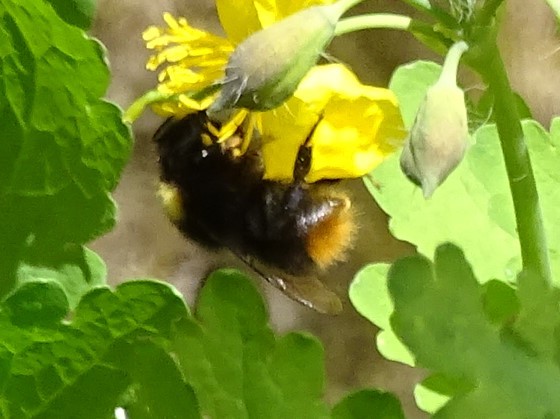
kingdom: Animalia
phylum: Arthropoda
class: Insecta
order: Hymenoptera
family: Apidae
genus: Bombus
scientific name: Bombus pratorum
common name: Early humble-bee
